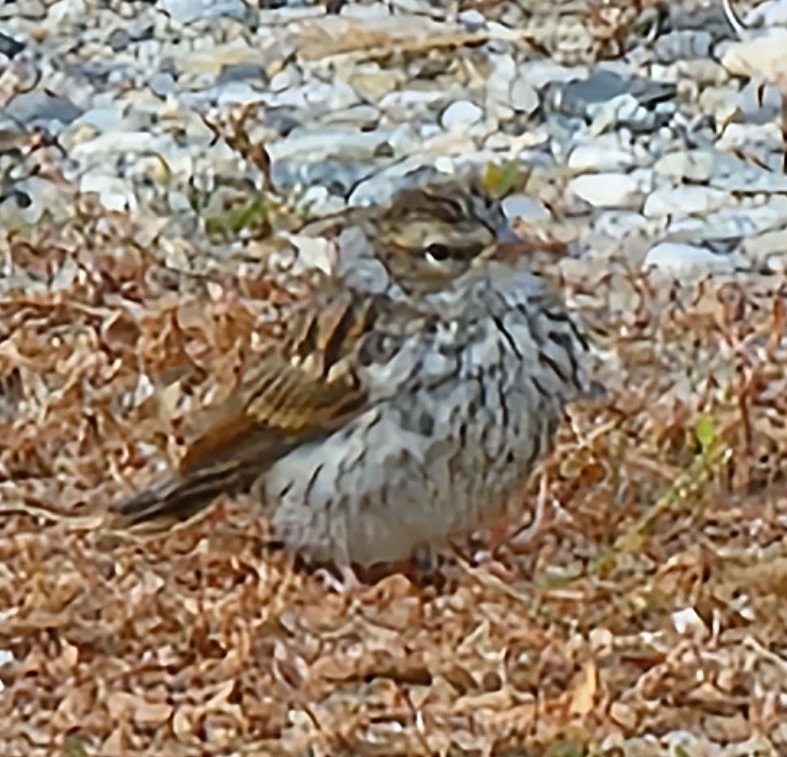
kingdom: Animalia
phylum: Chordata
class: Aves
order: Passeriformes
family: Passerellidae
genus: Spizella
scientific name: Spizella passerina
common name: Chipping sparrow
